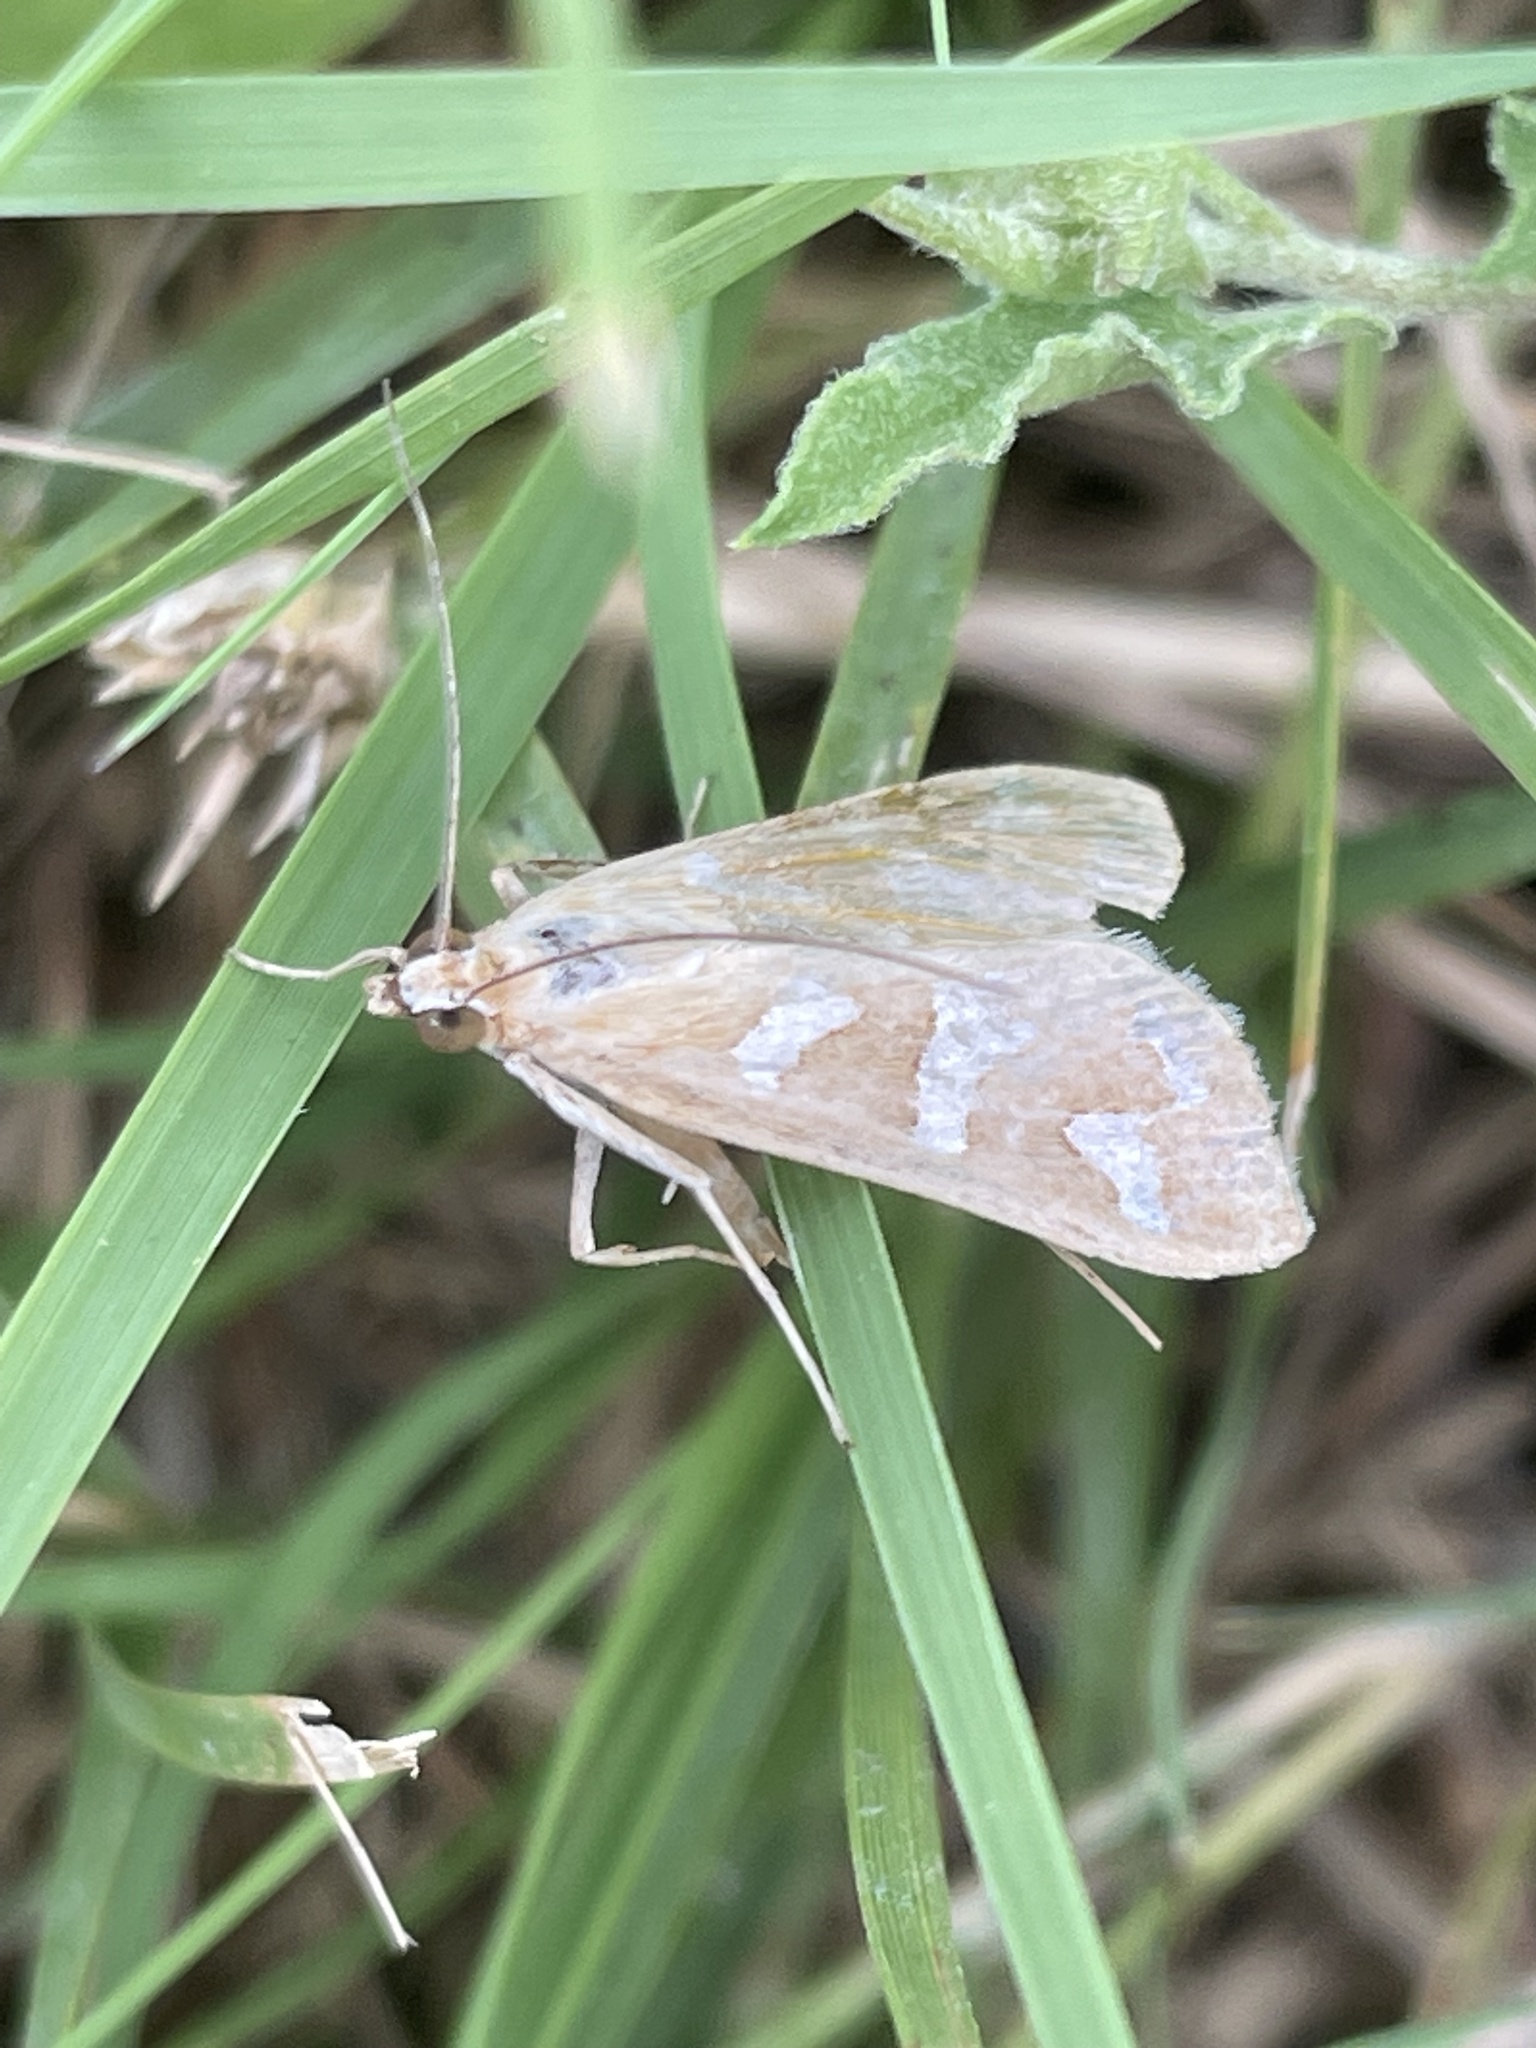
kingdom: Animalia
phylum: Arthropoda
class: Insecta
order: Lepidoptera
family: Crambidae
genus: Diastictis
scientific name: Diastictis fracturalis
